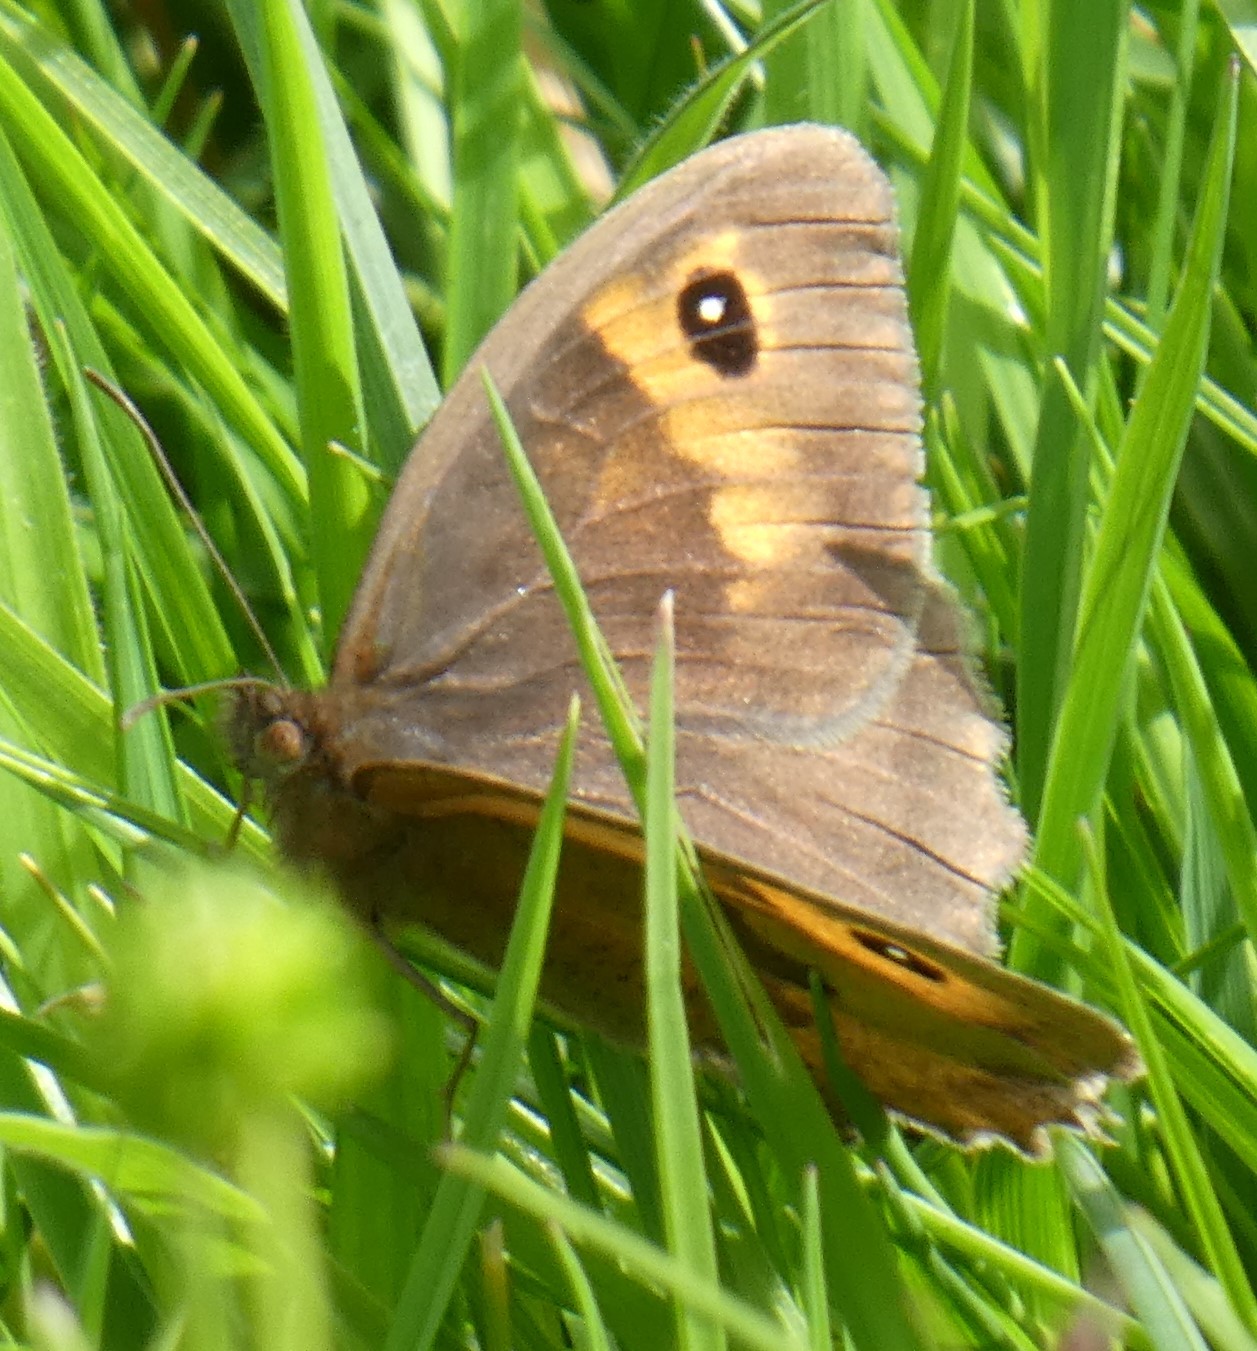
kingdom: Animalia
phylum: Arthropoda
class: Insecta
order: Lepidoptera
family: Nymphalidae
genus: Maniola
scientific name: Maniola jurtina
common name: Meadow brown
